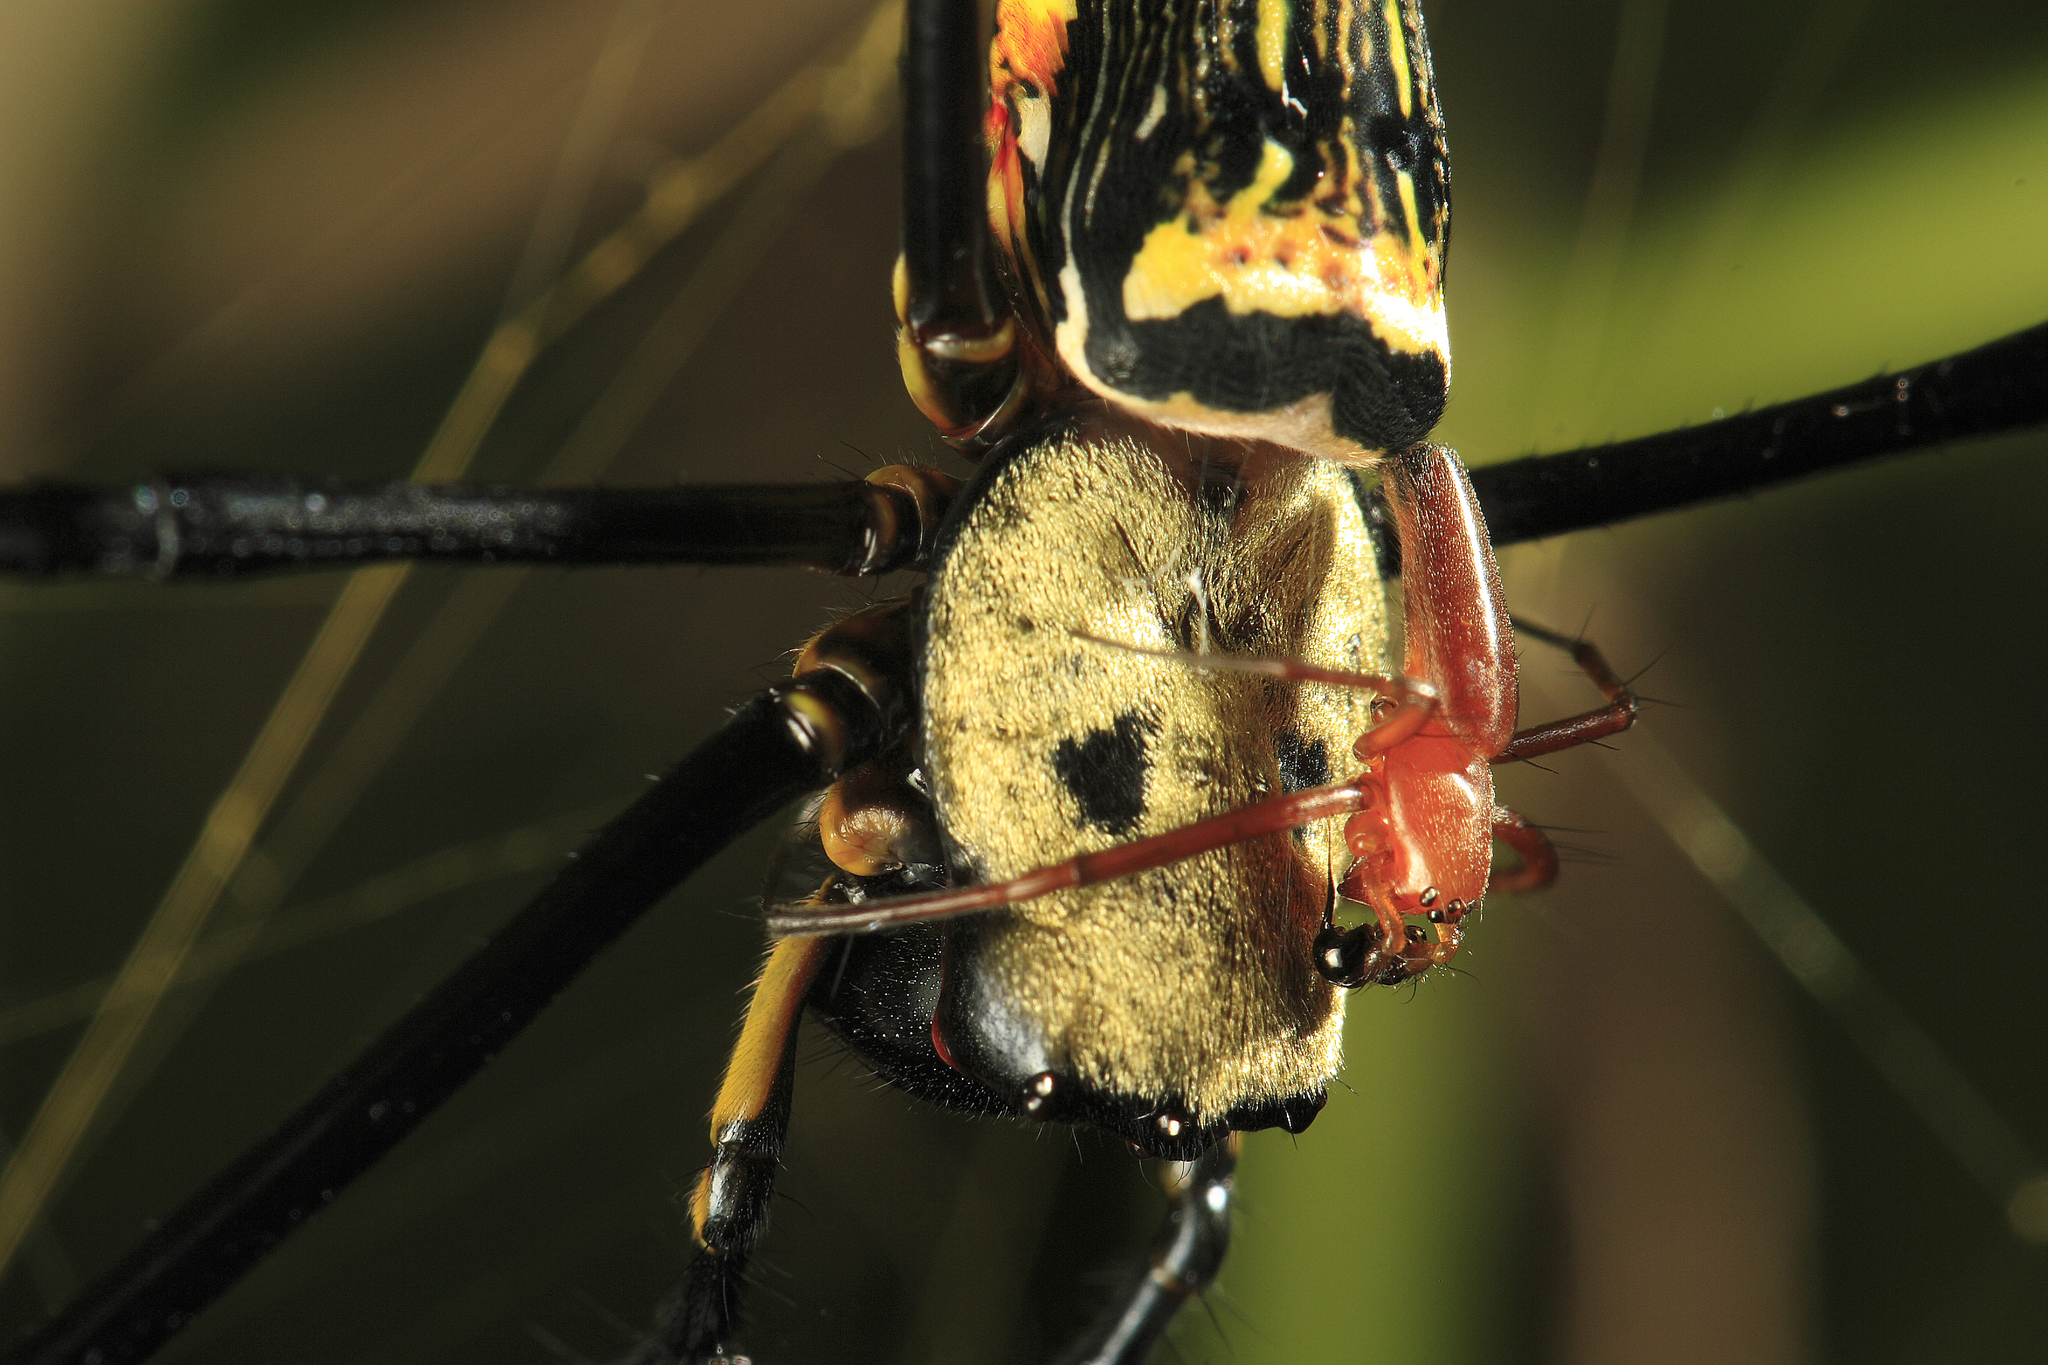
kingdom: Animalia
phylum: Arthropoda
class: Arachnida
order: Araneae
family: Araneidae
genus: Nephila
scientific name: Nephila pilipes
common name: Giant golden orb weaver
